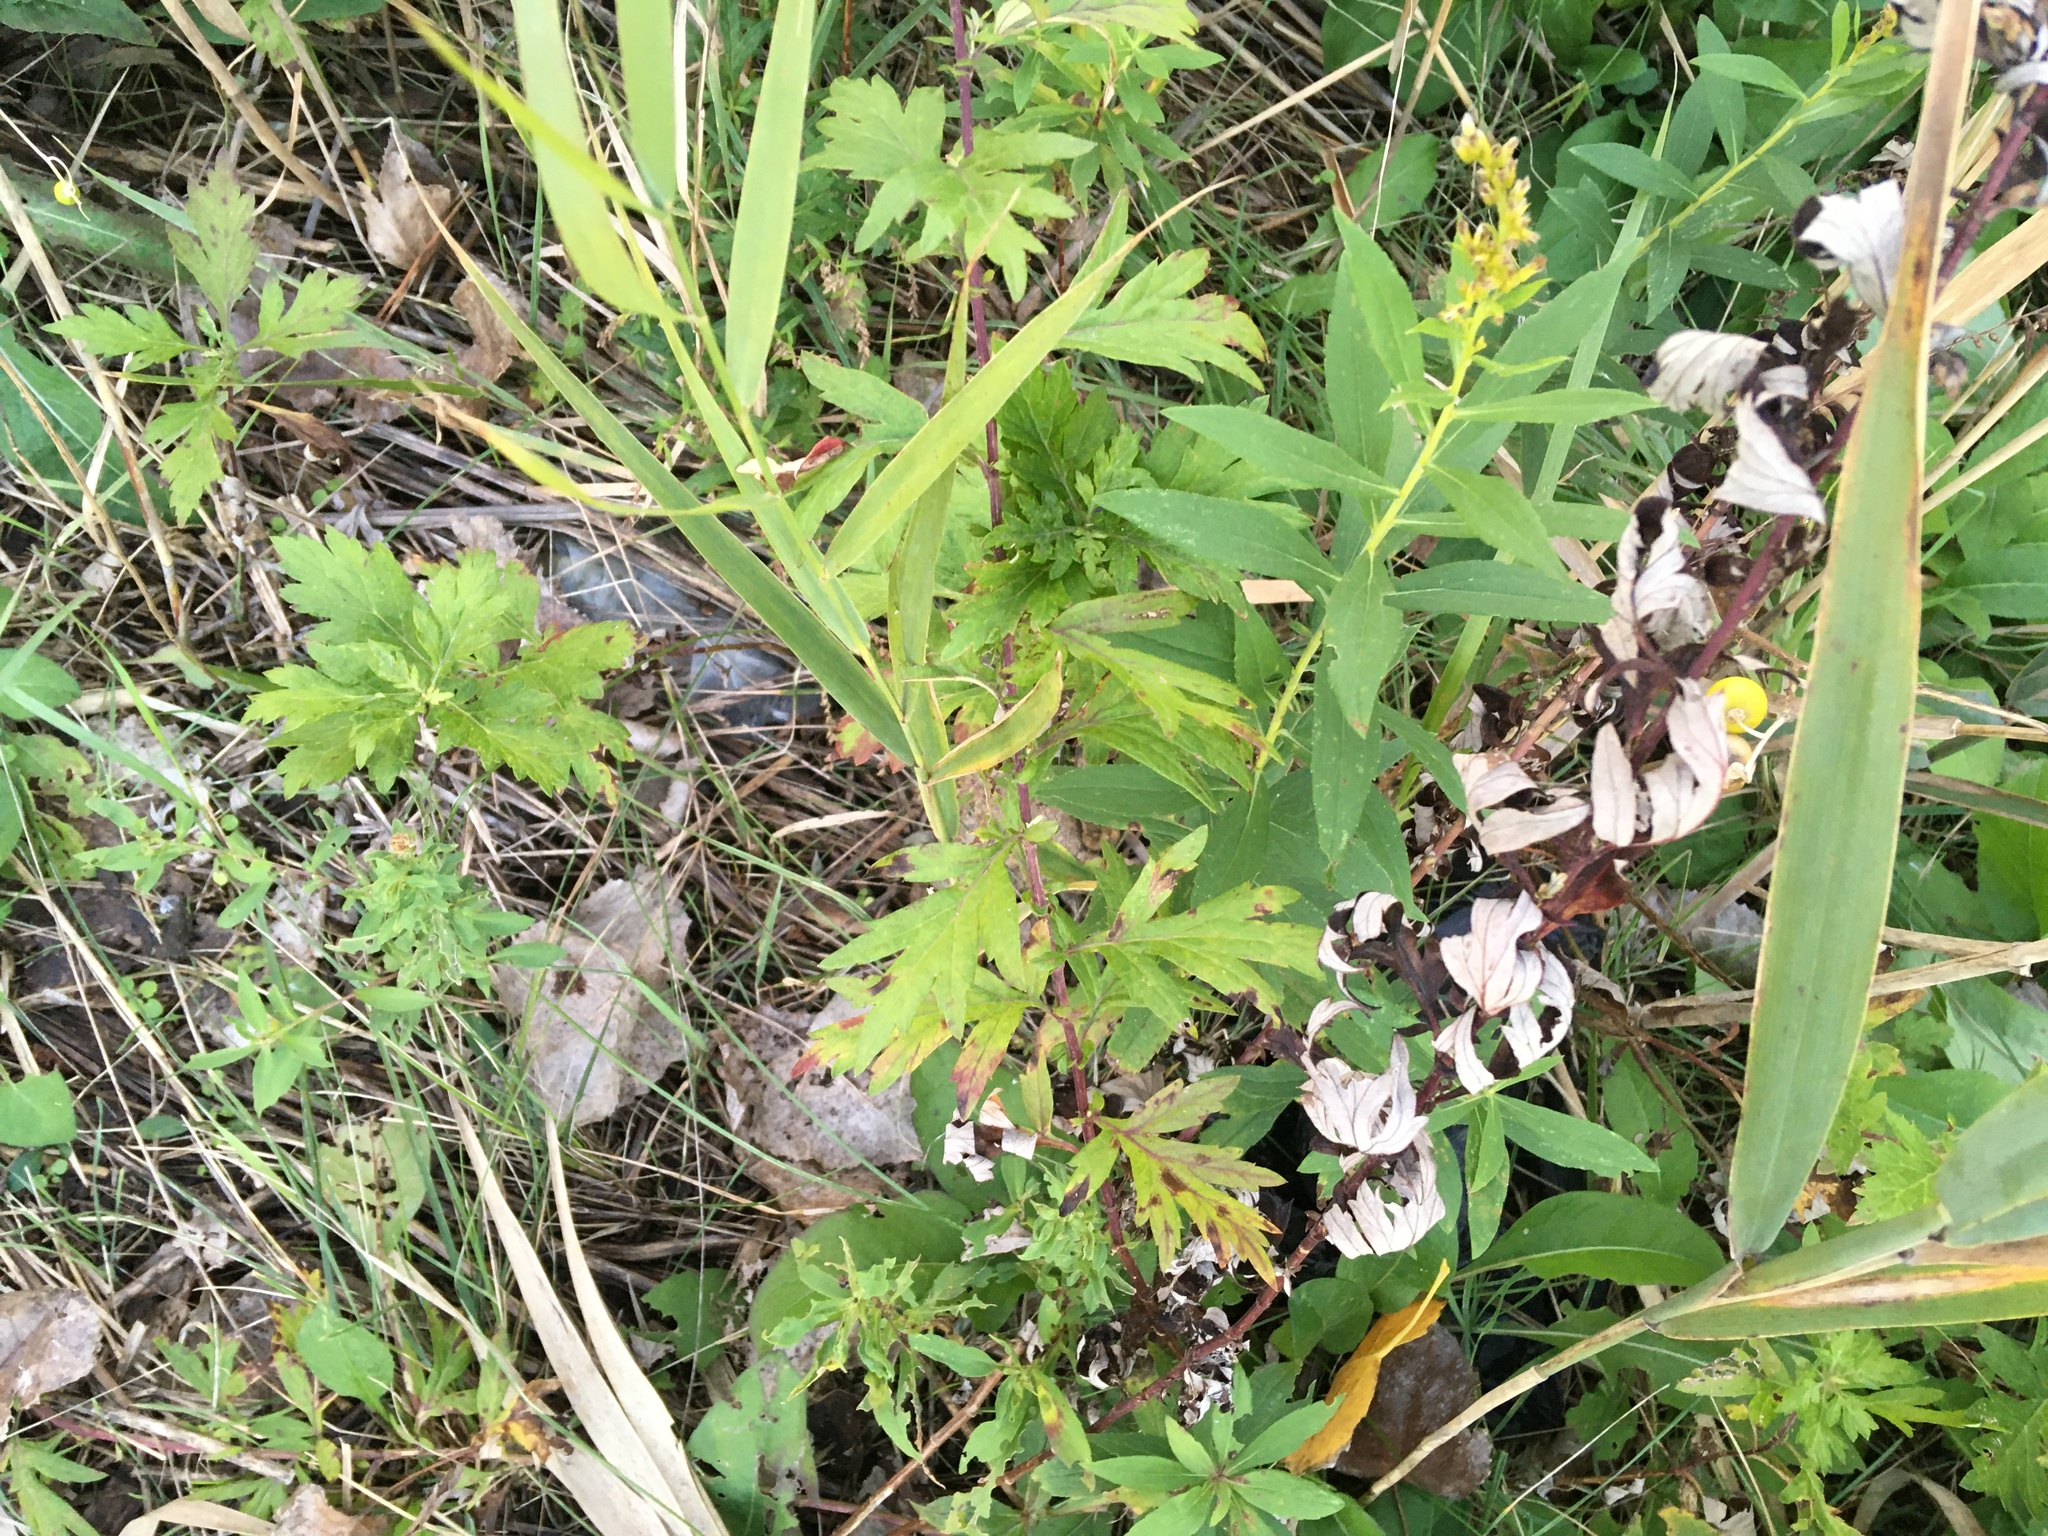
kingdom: Plantae
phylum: Tracheophyta
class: Magnoliopsida
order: Asterales
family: Asteraceae
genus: Artemisia
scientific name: Artemisia vulgaris
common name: Mugwort
